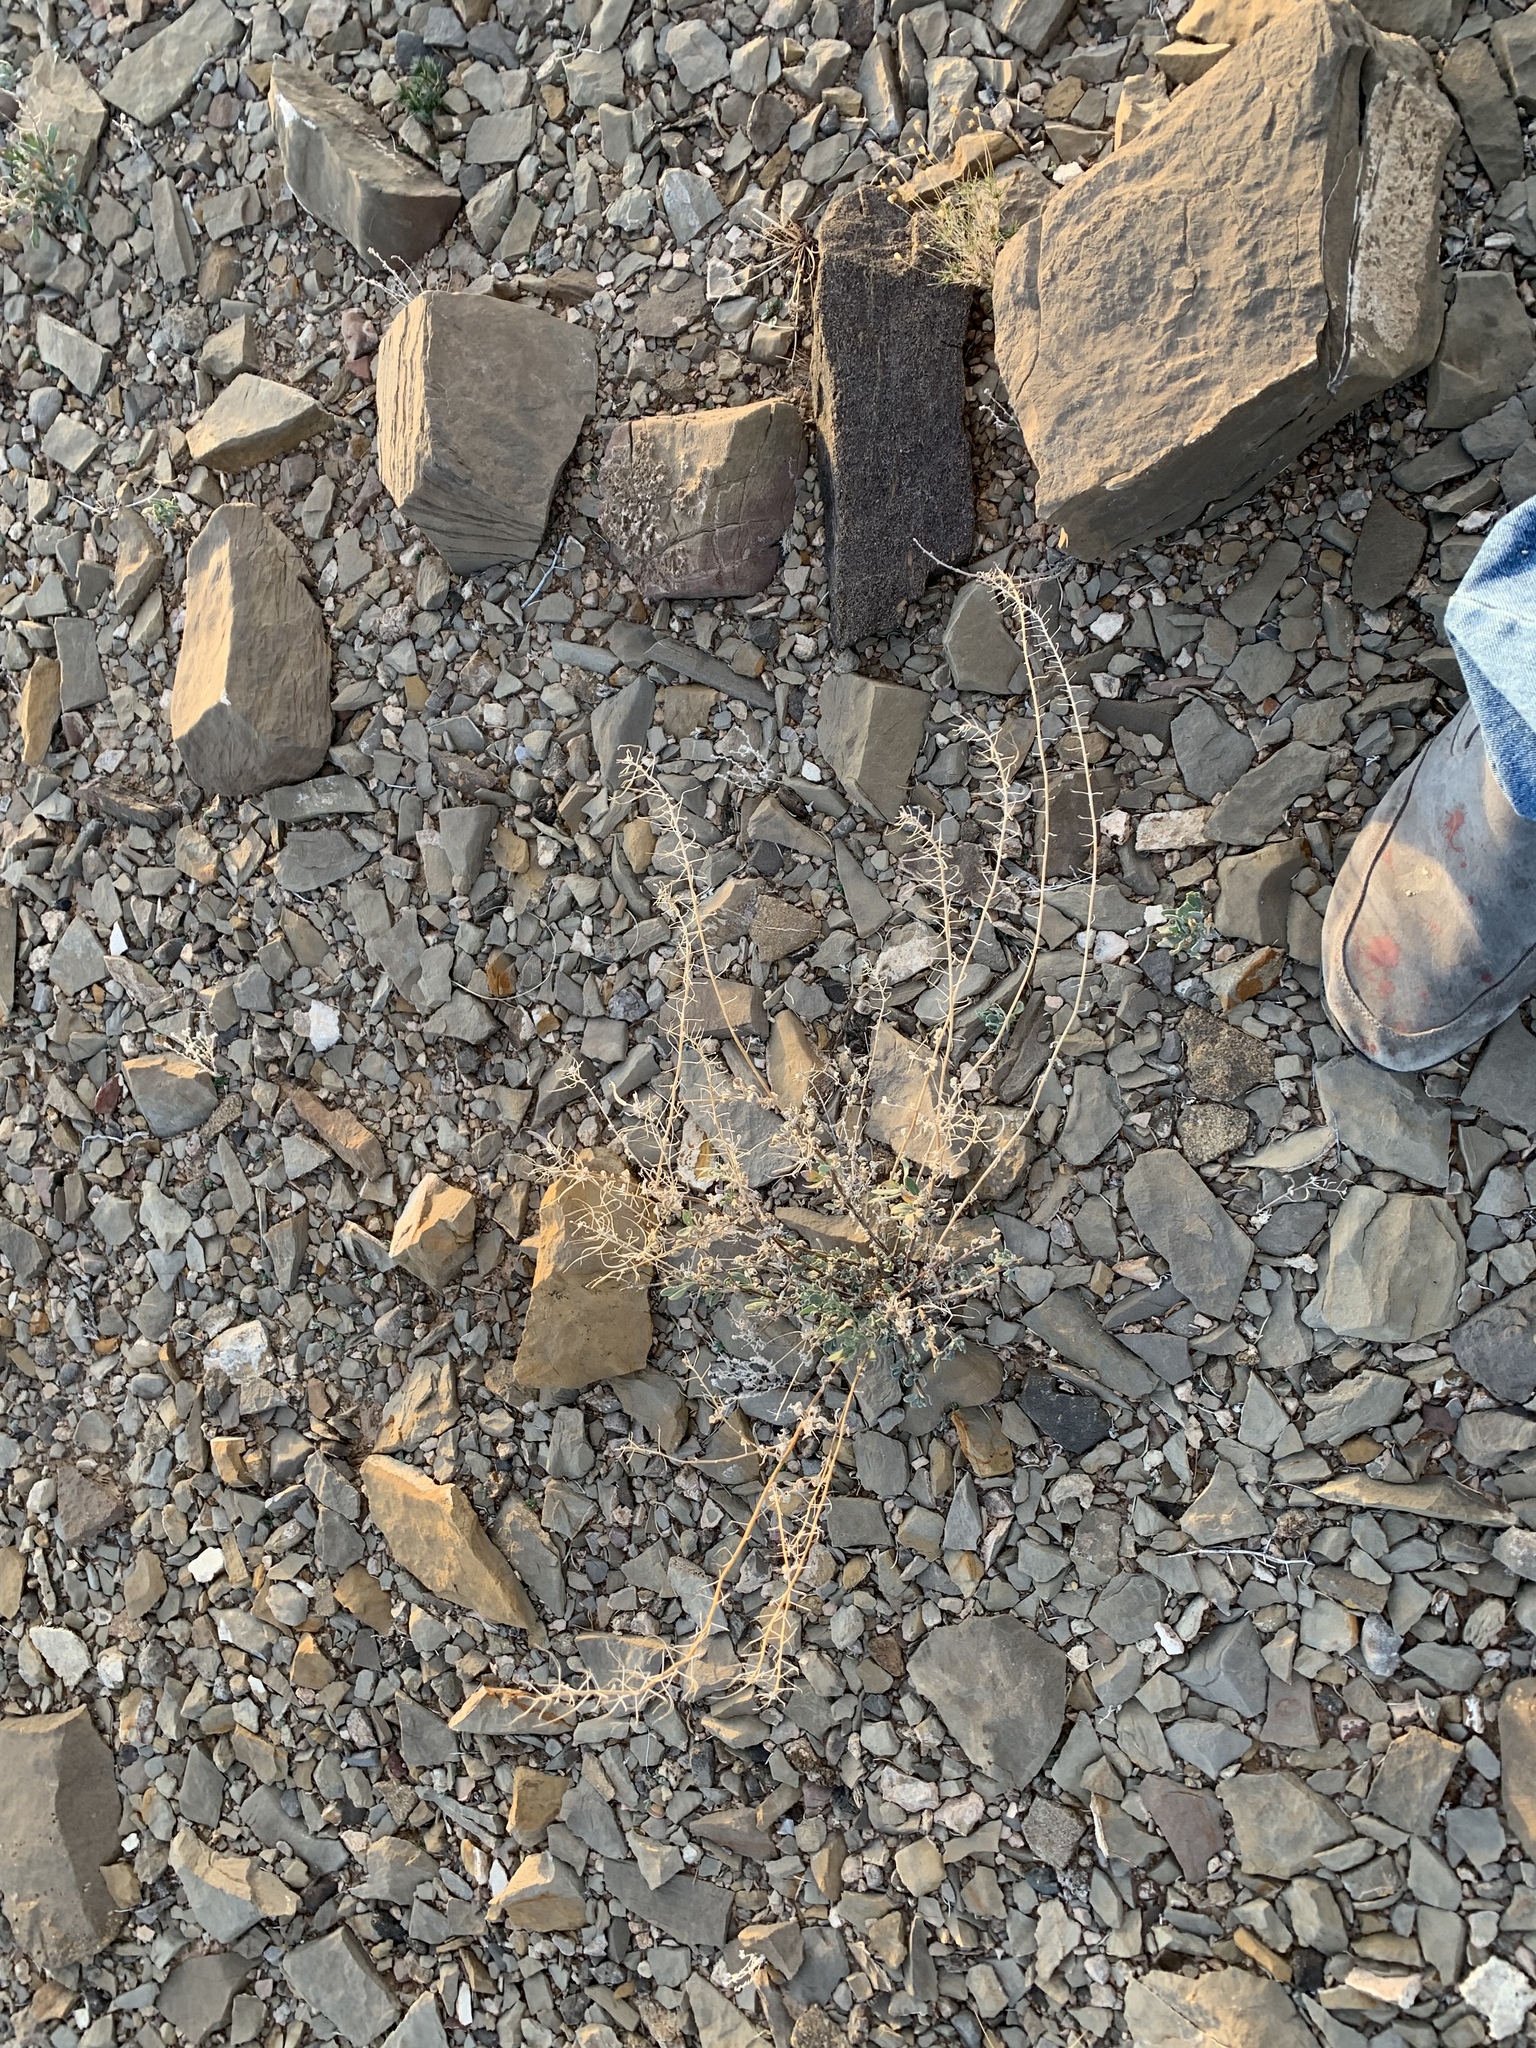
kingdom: Plantae
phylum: Tracheophyta
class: Magnoliopsida
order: Brassicales
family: Brassicaceae
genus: Nerisyrenia
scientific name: Nerisyrenia camporum
